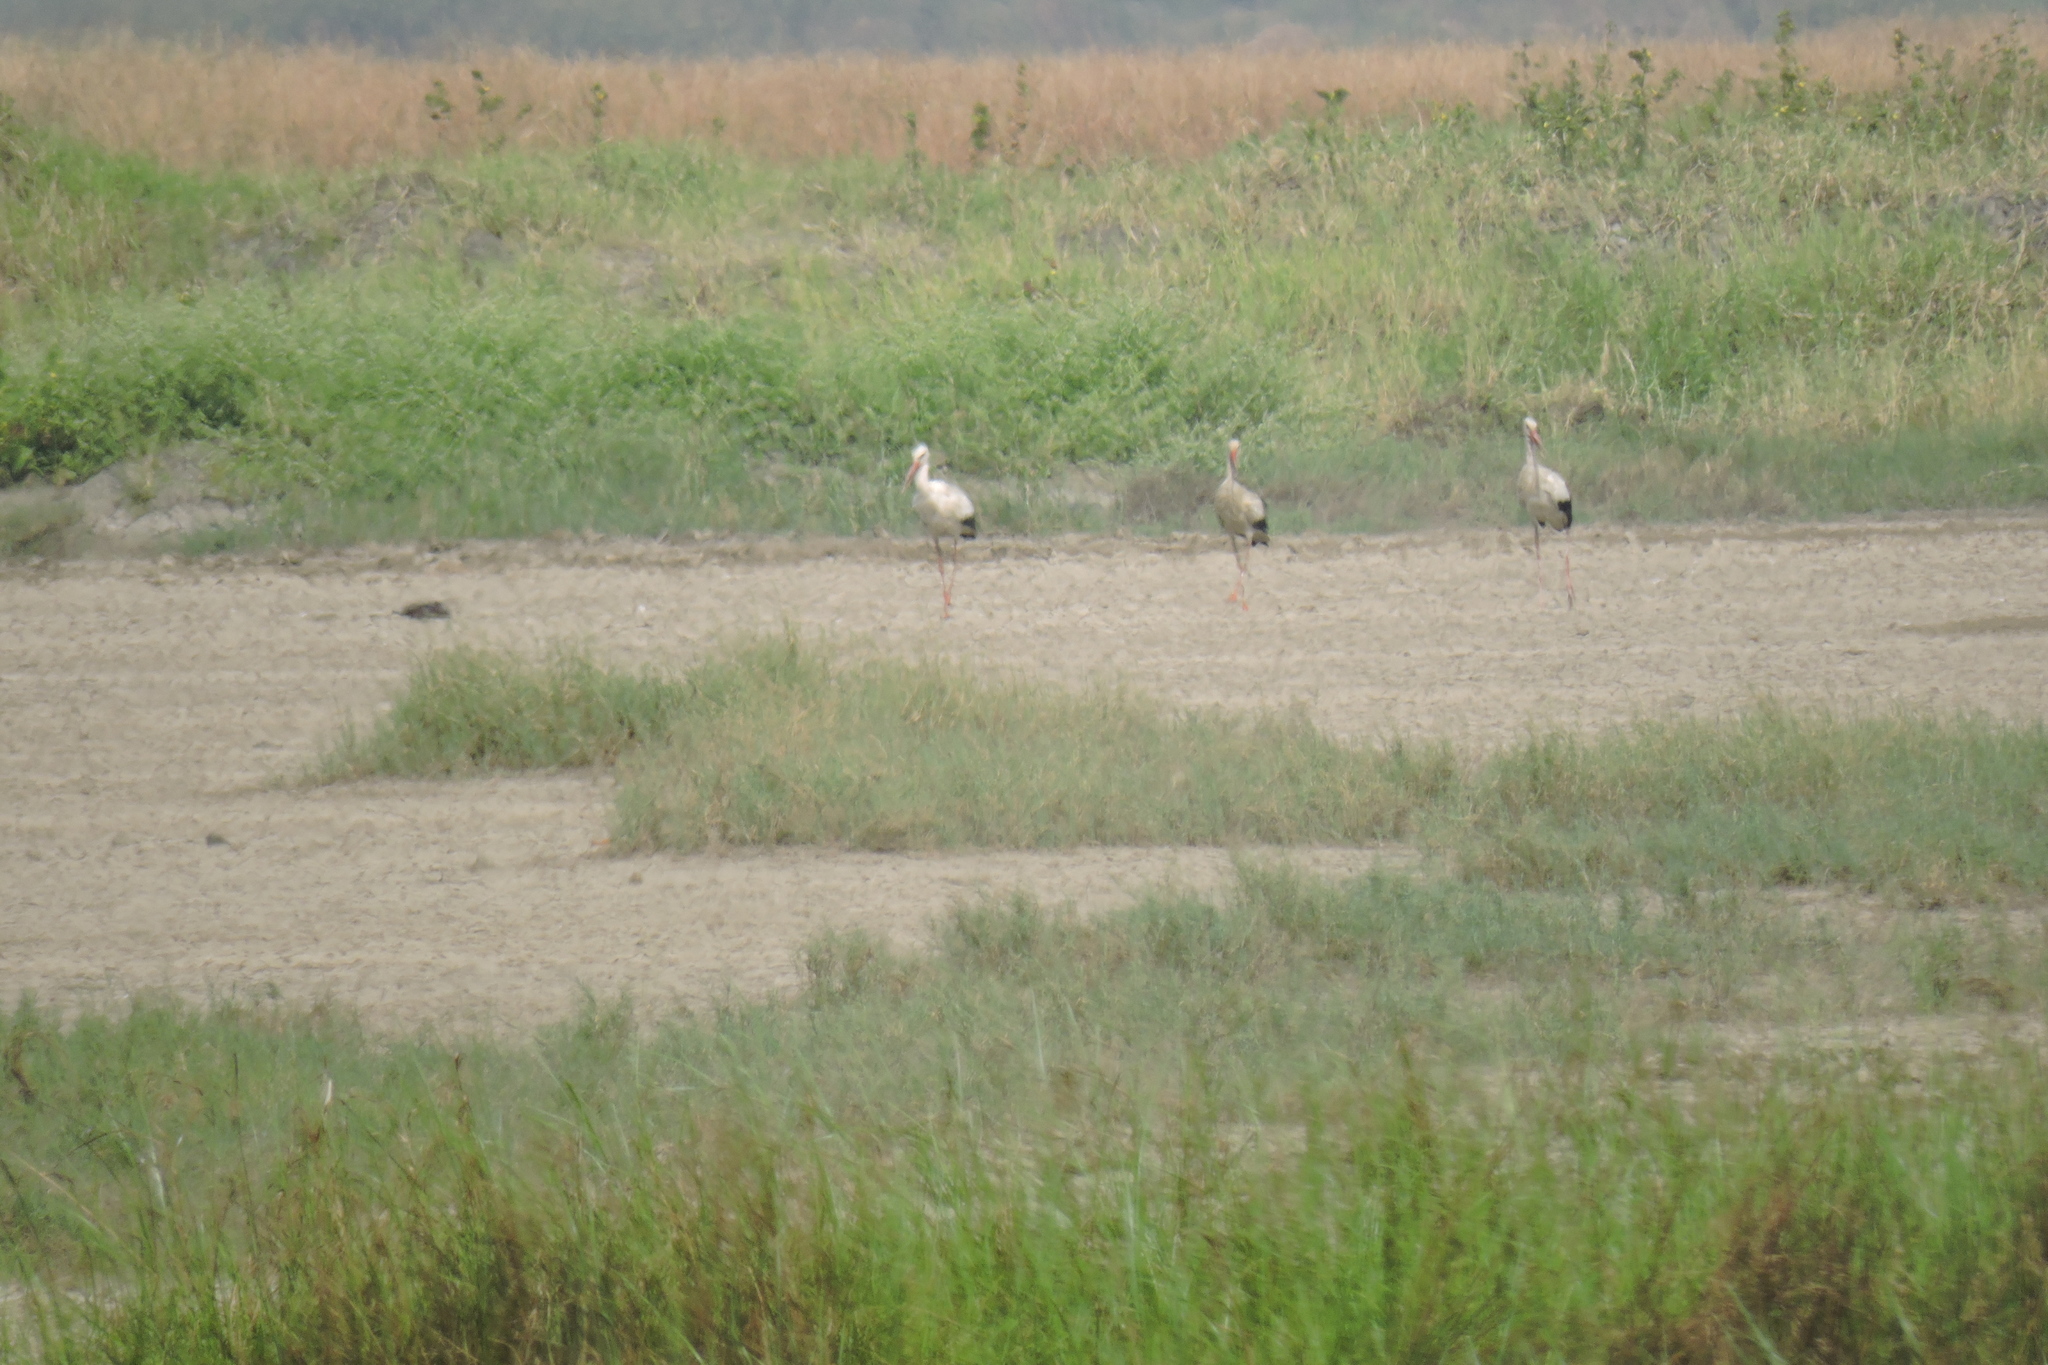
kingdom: Animalia
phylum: Chordata
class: Aves
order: Ciconiiformes
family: Ciconiidae
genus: Ciconia
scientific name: Ciconia ciconia
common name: White stork
